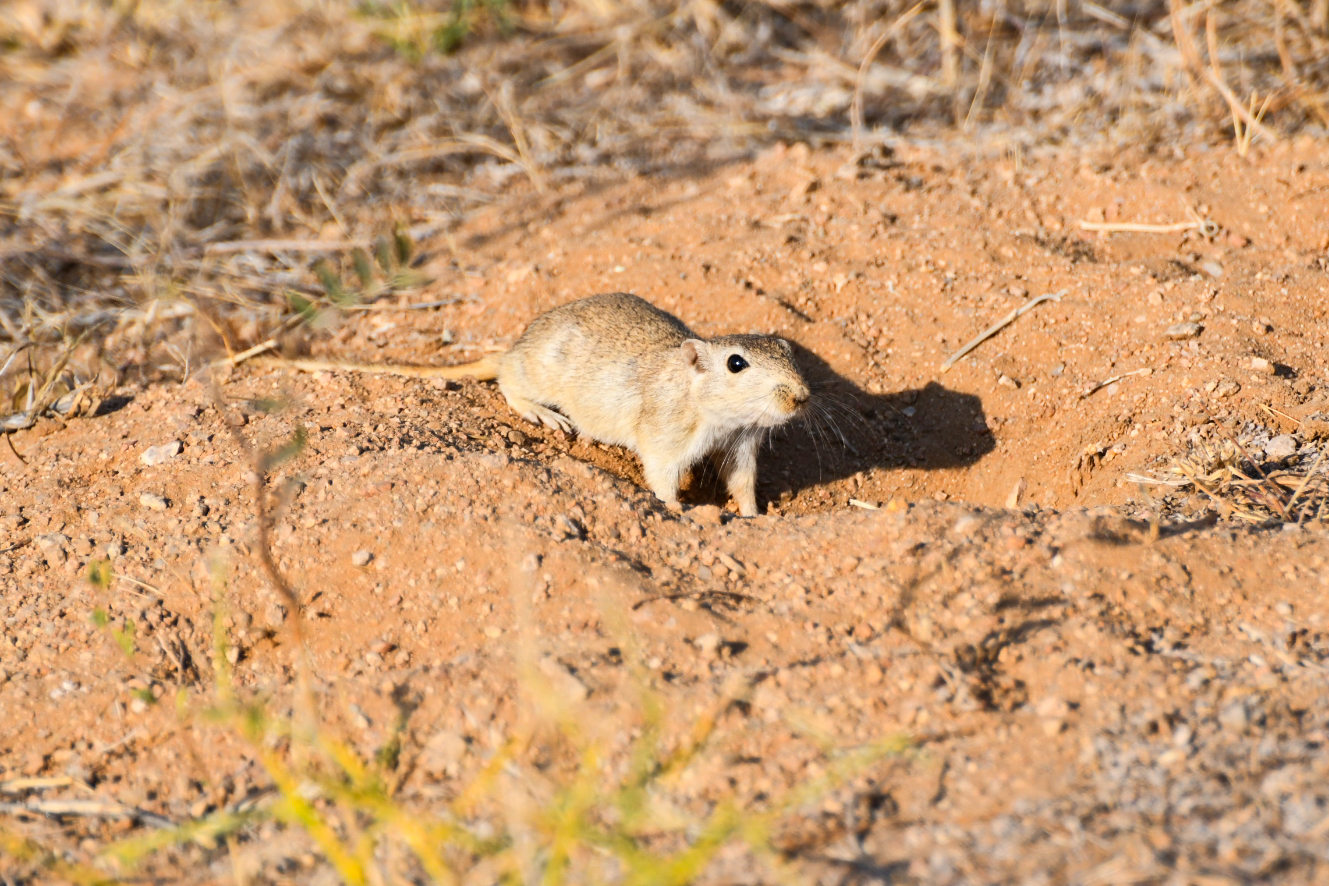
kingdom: Animalia
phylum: Chordata
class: Mammalia
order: Rodentia
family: Muridae
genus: Meriones
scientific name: Meriones hurrianae
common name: Indian desert jird
